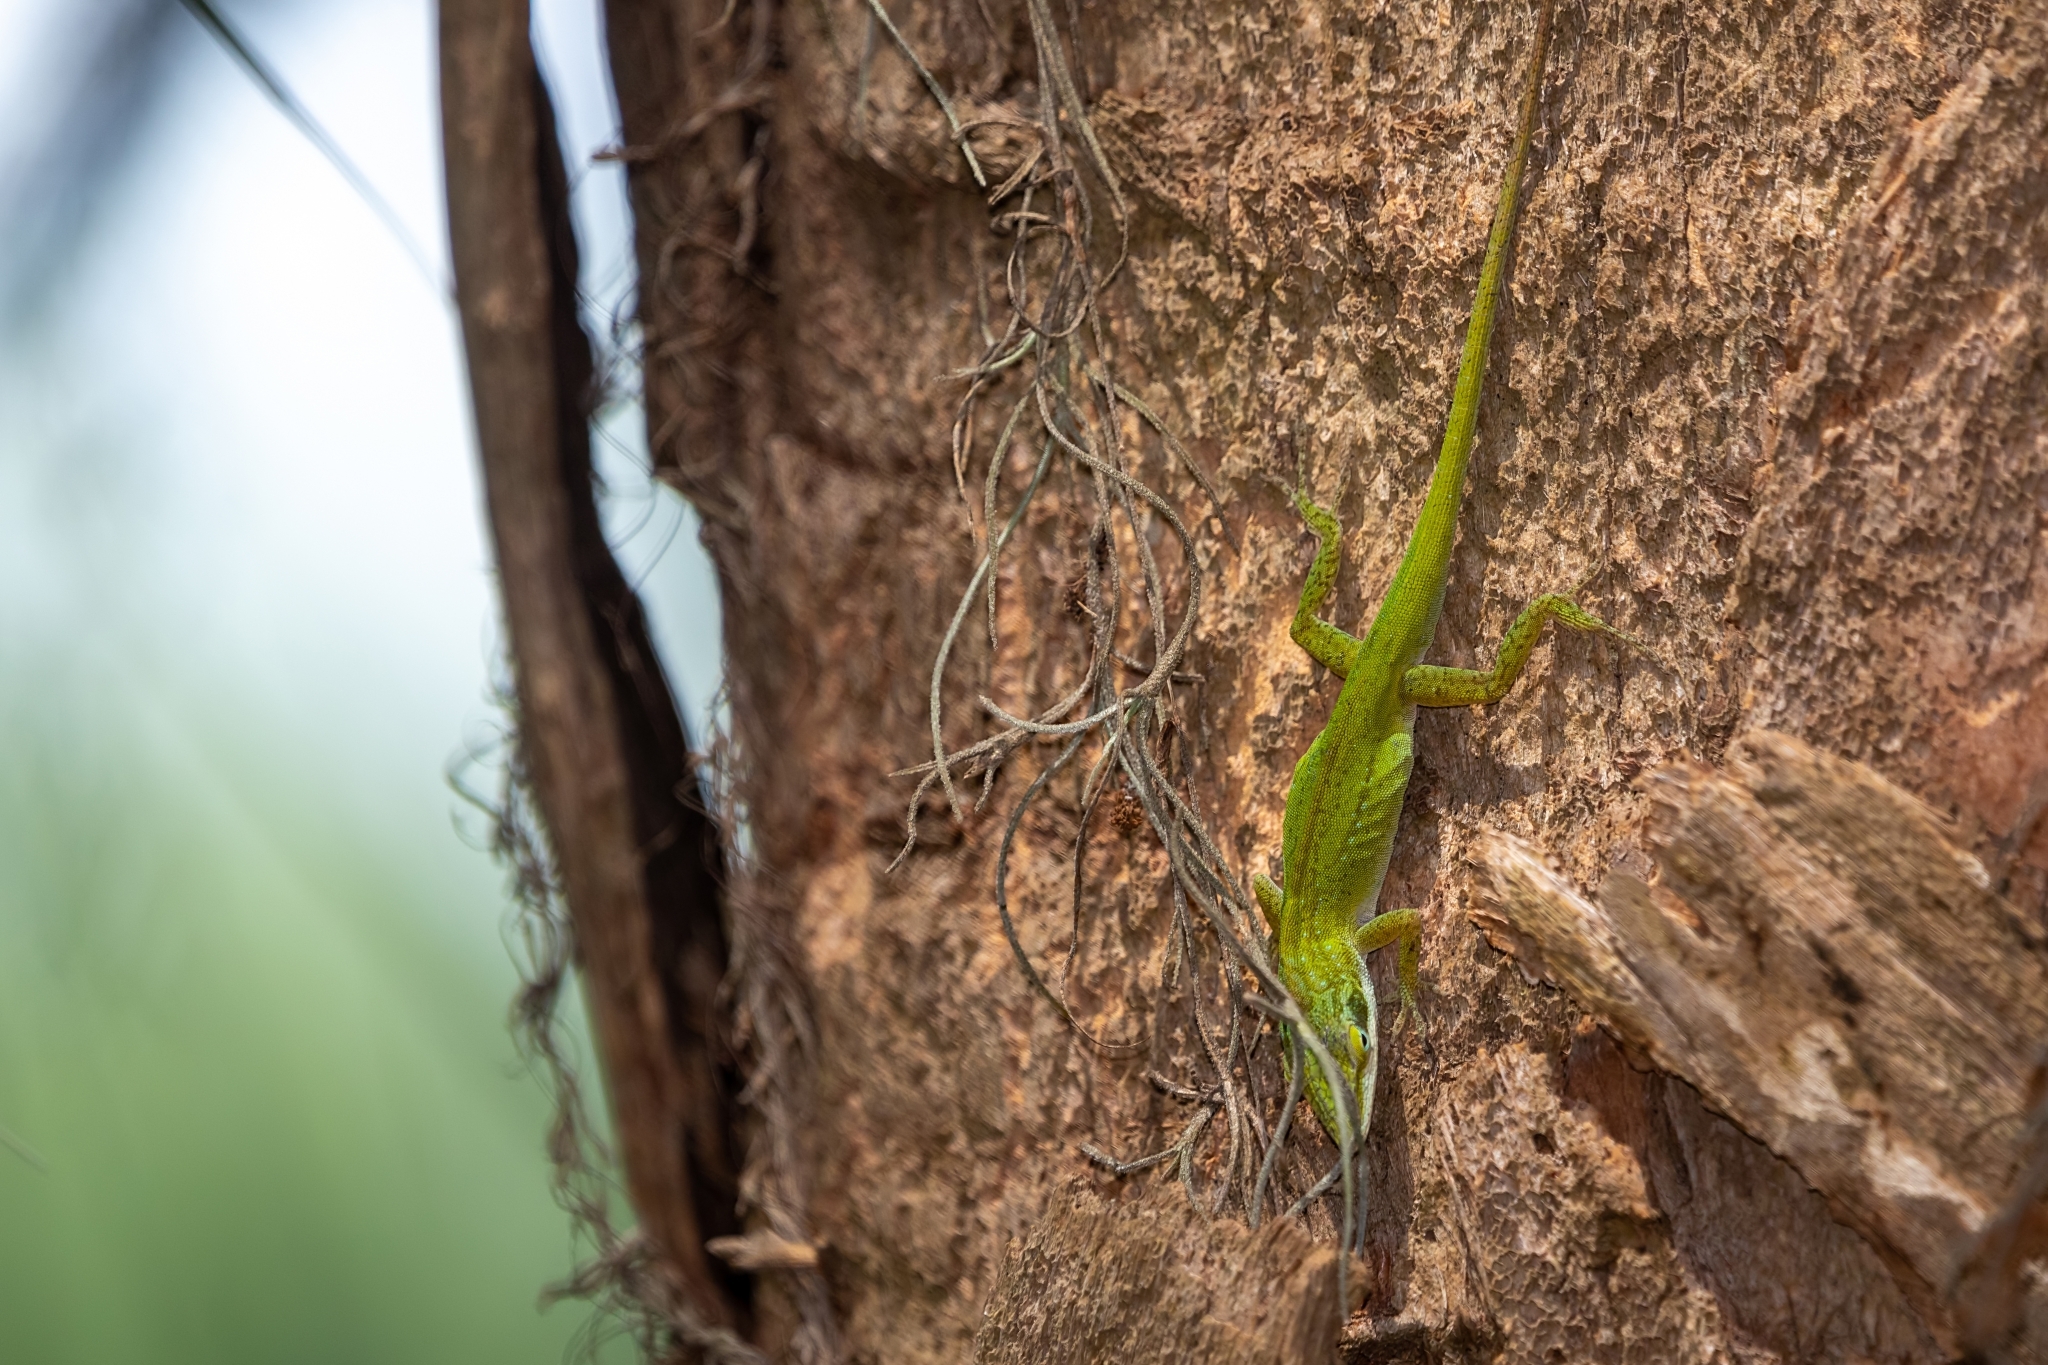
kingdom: Animalia
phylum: Chordata
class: Squamata
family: Dactyloidae
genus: Anolis
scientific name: Anolis carolinensis
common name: Green anole
